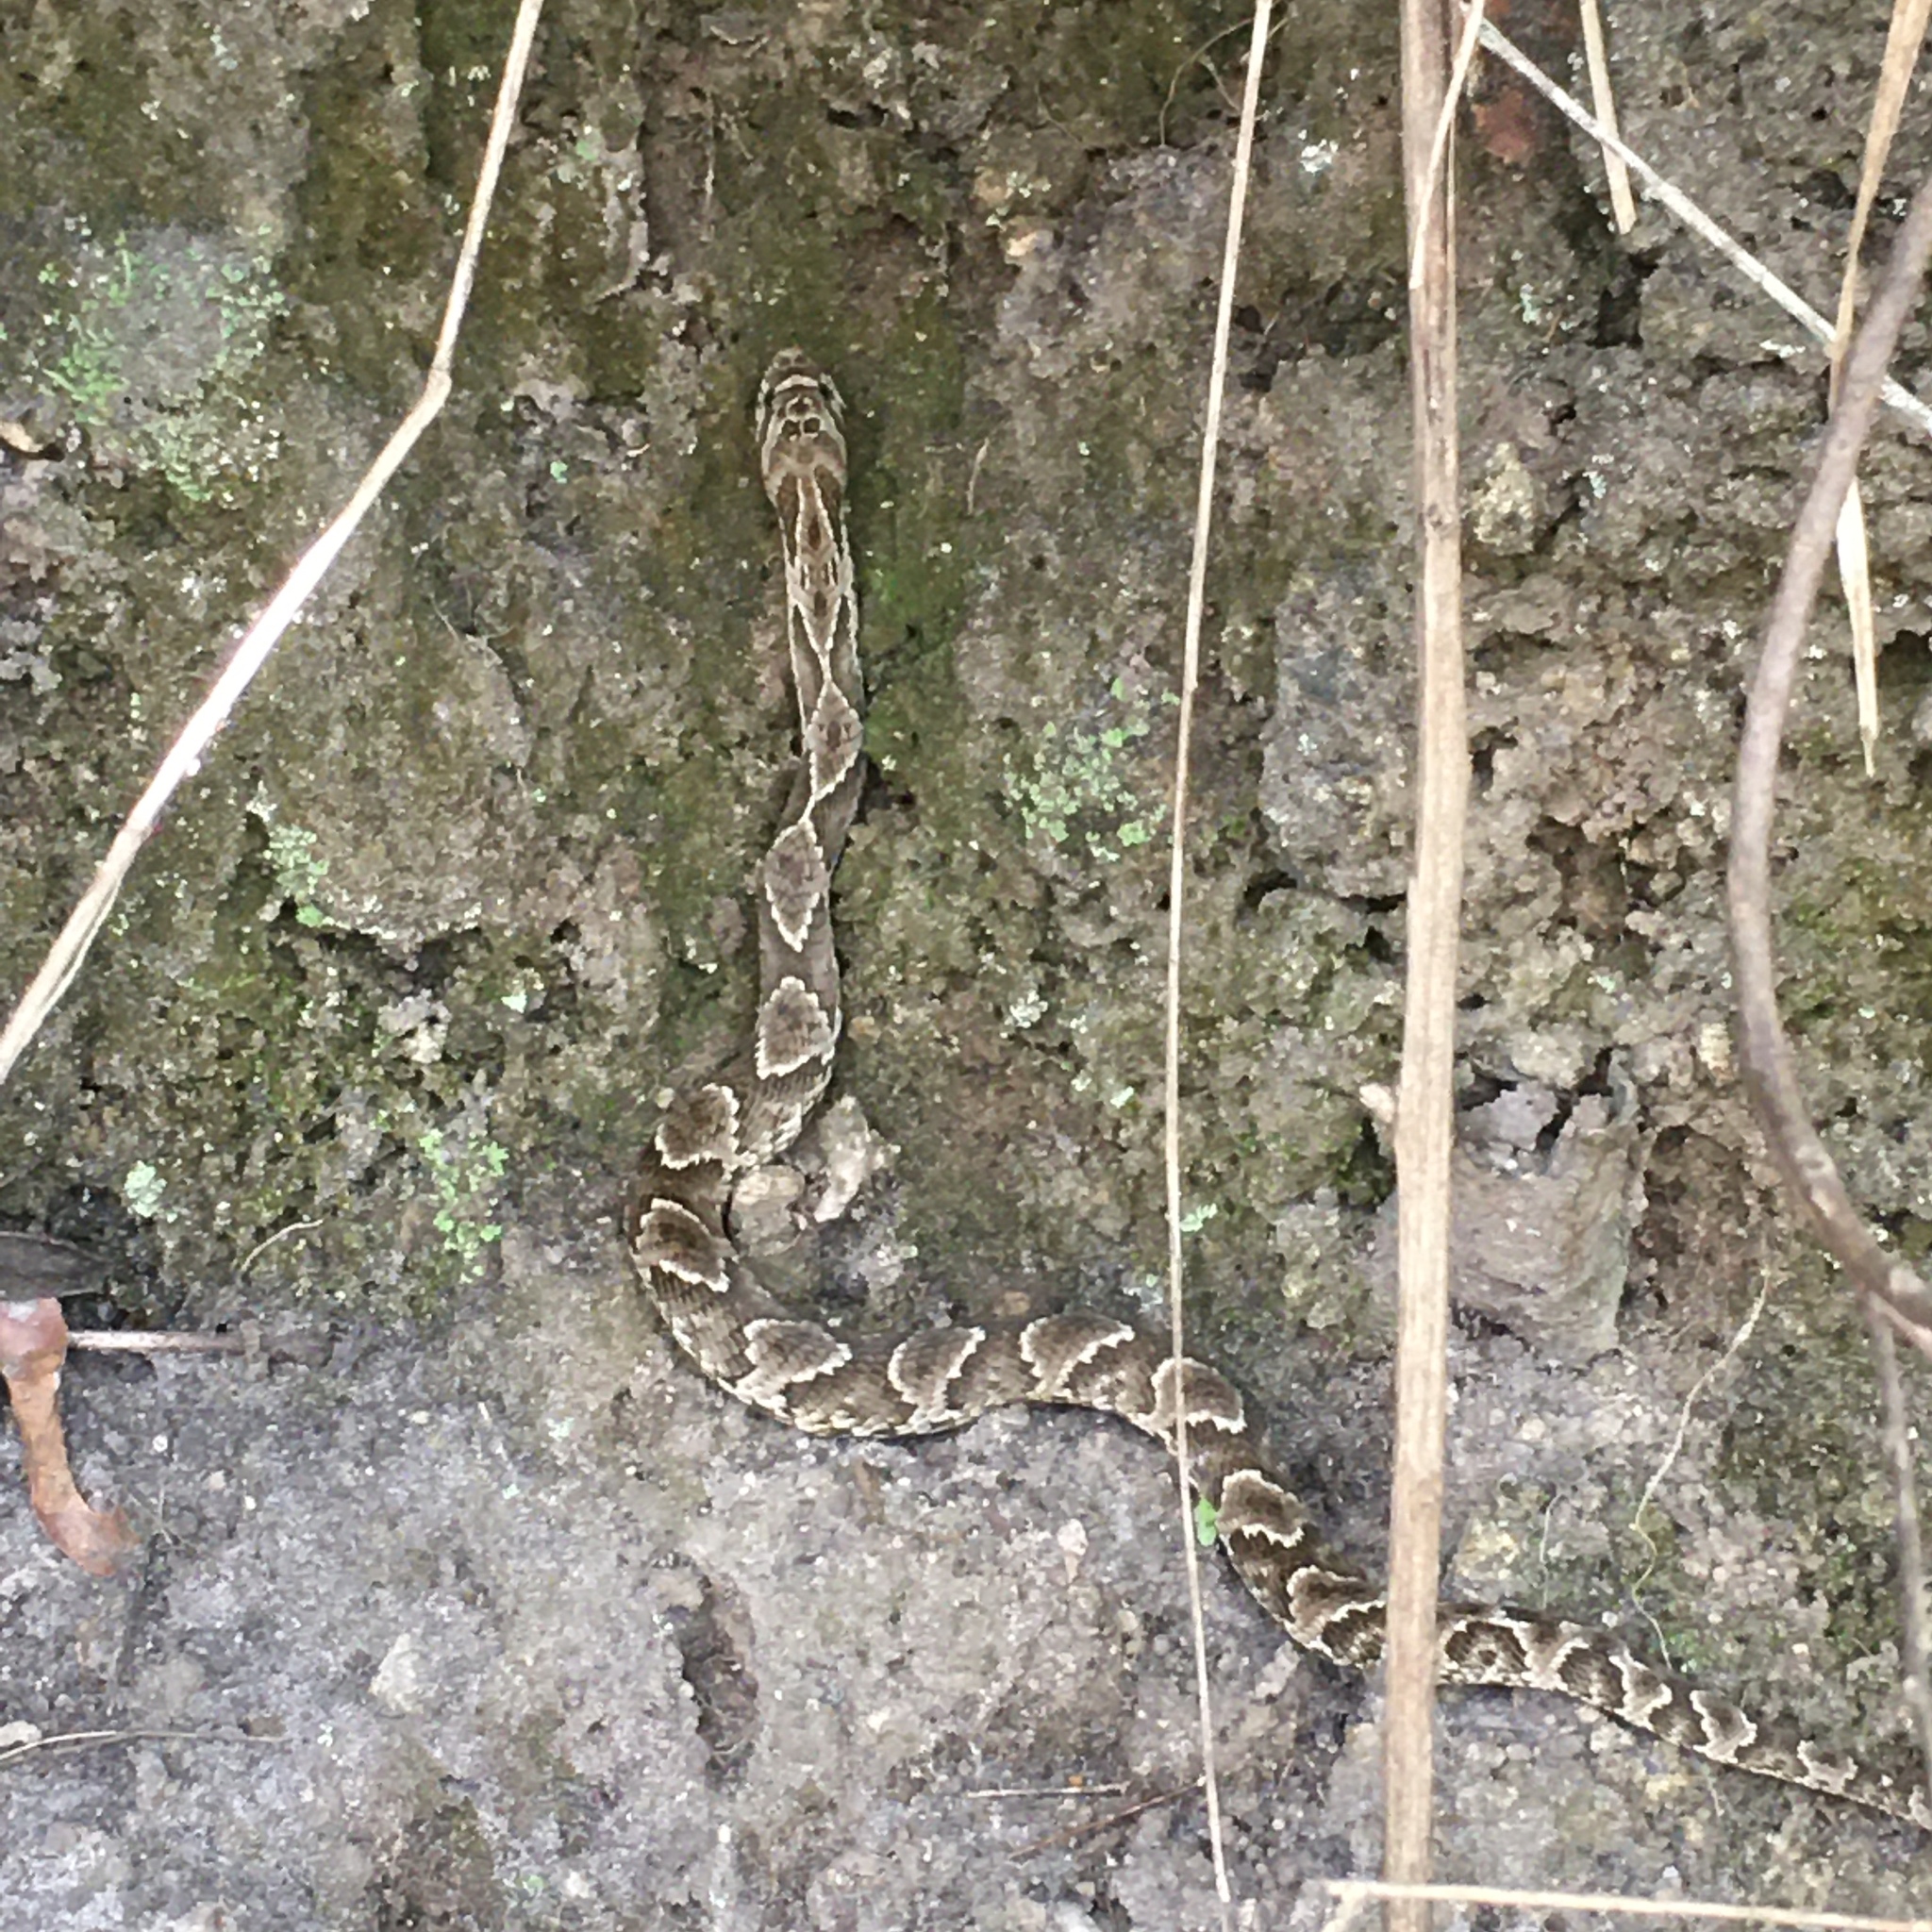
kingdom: Animalia
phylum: Chordata
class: Squamata
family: Colubridae
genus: Xenodon
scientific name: Xenodon merremii
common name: Wagler's snake
